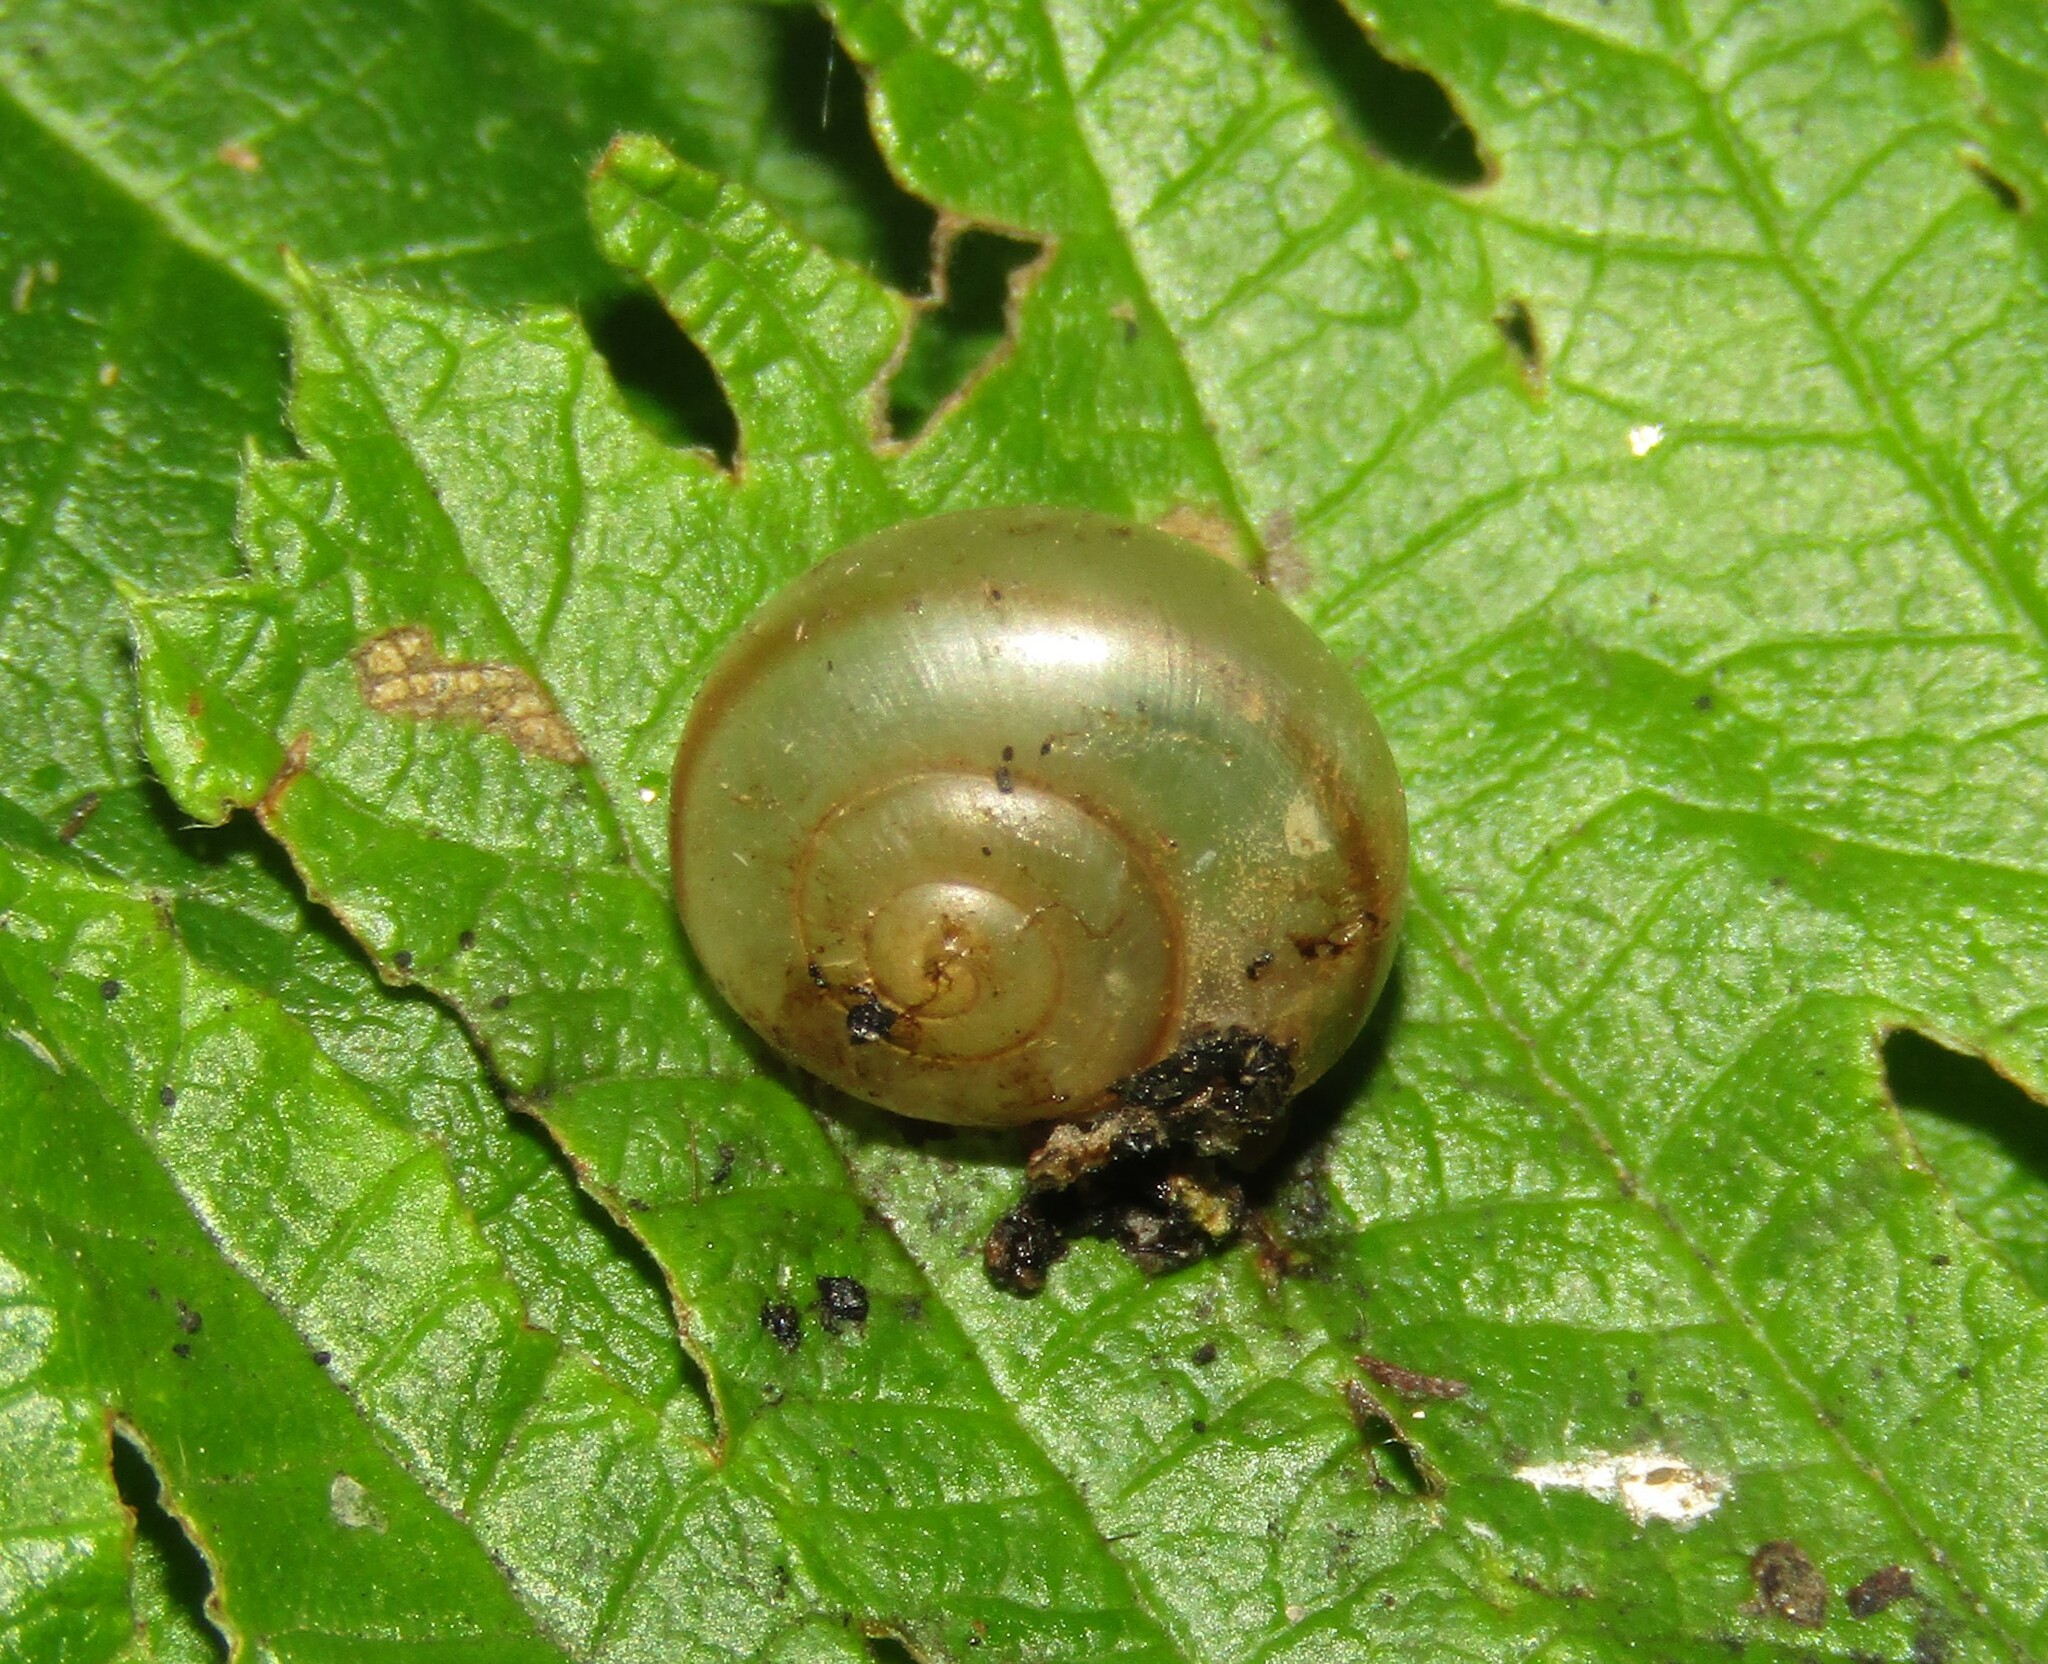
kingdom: Animalia
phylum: Mollusca
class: Gastropoda
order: Stylommatophora
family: Camaenidae
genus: Fruticicola
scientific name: Fruticicola fruticum
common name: Bush snail
